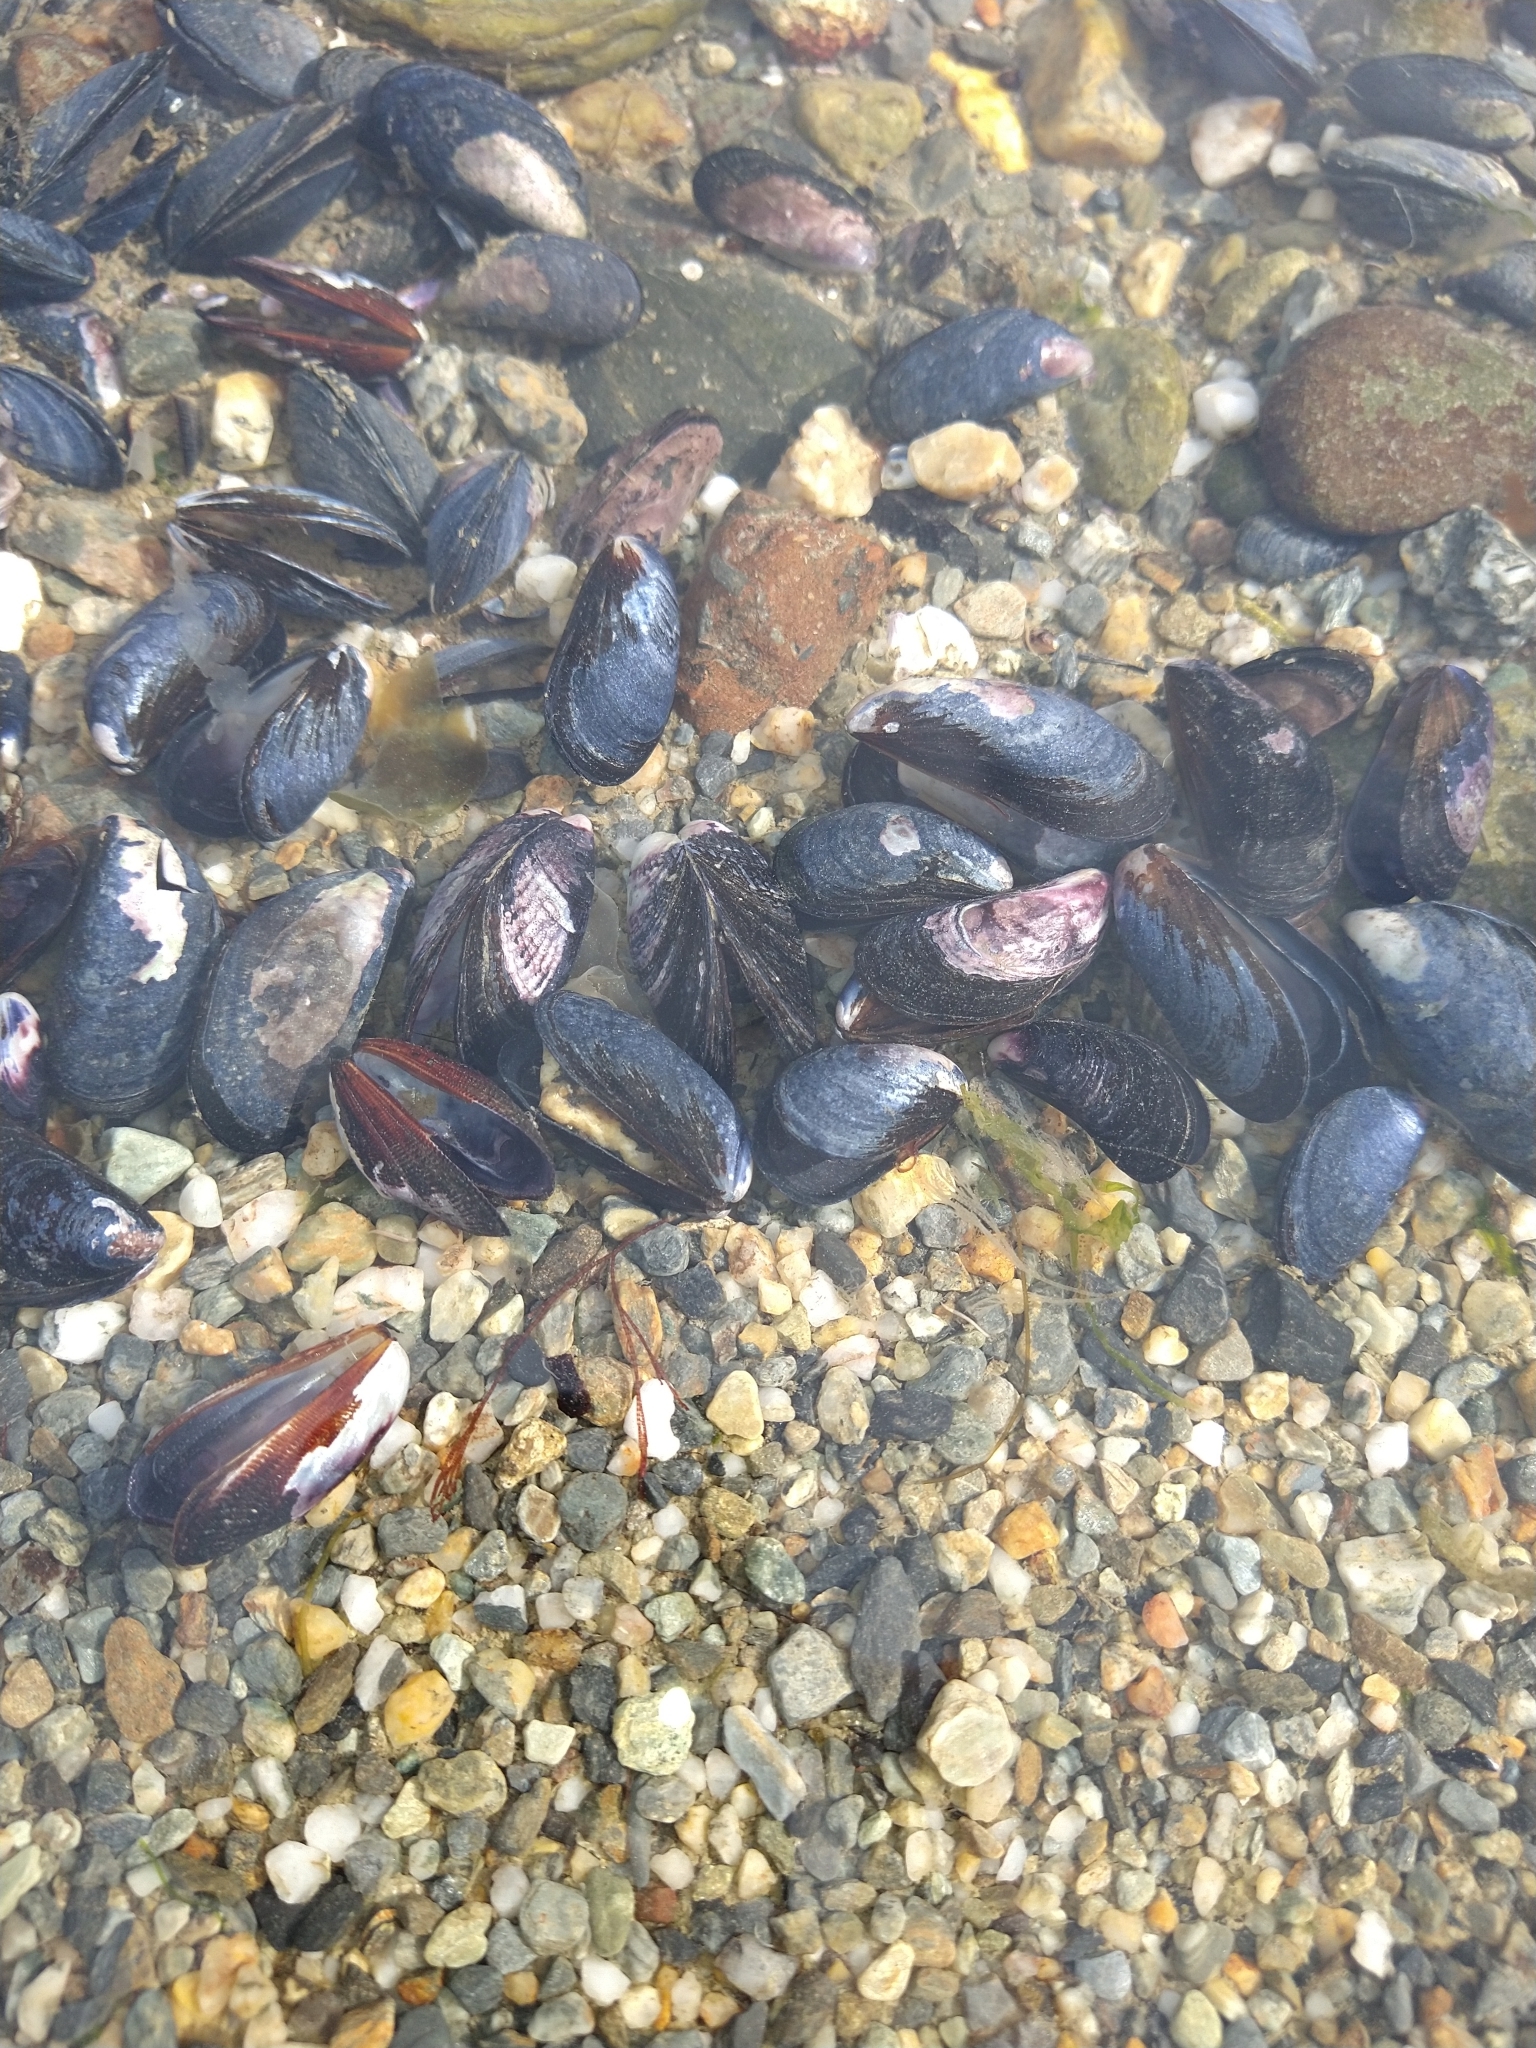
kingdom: Animalia
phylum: Mollusca
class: Bivalvia
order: Mytilida
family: Mytilidae
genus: Mytilus
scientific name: Mytilus chilensis
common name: Chilean mussel
